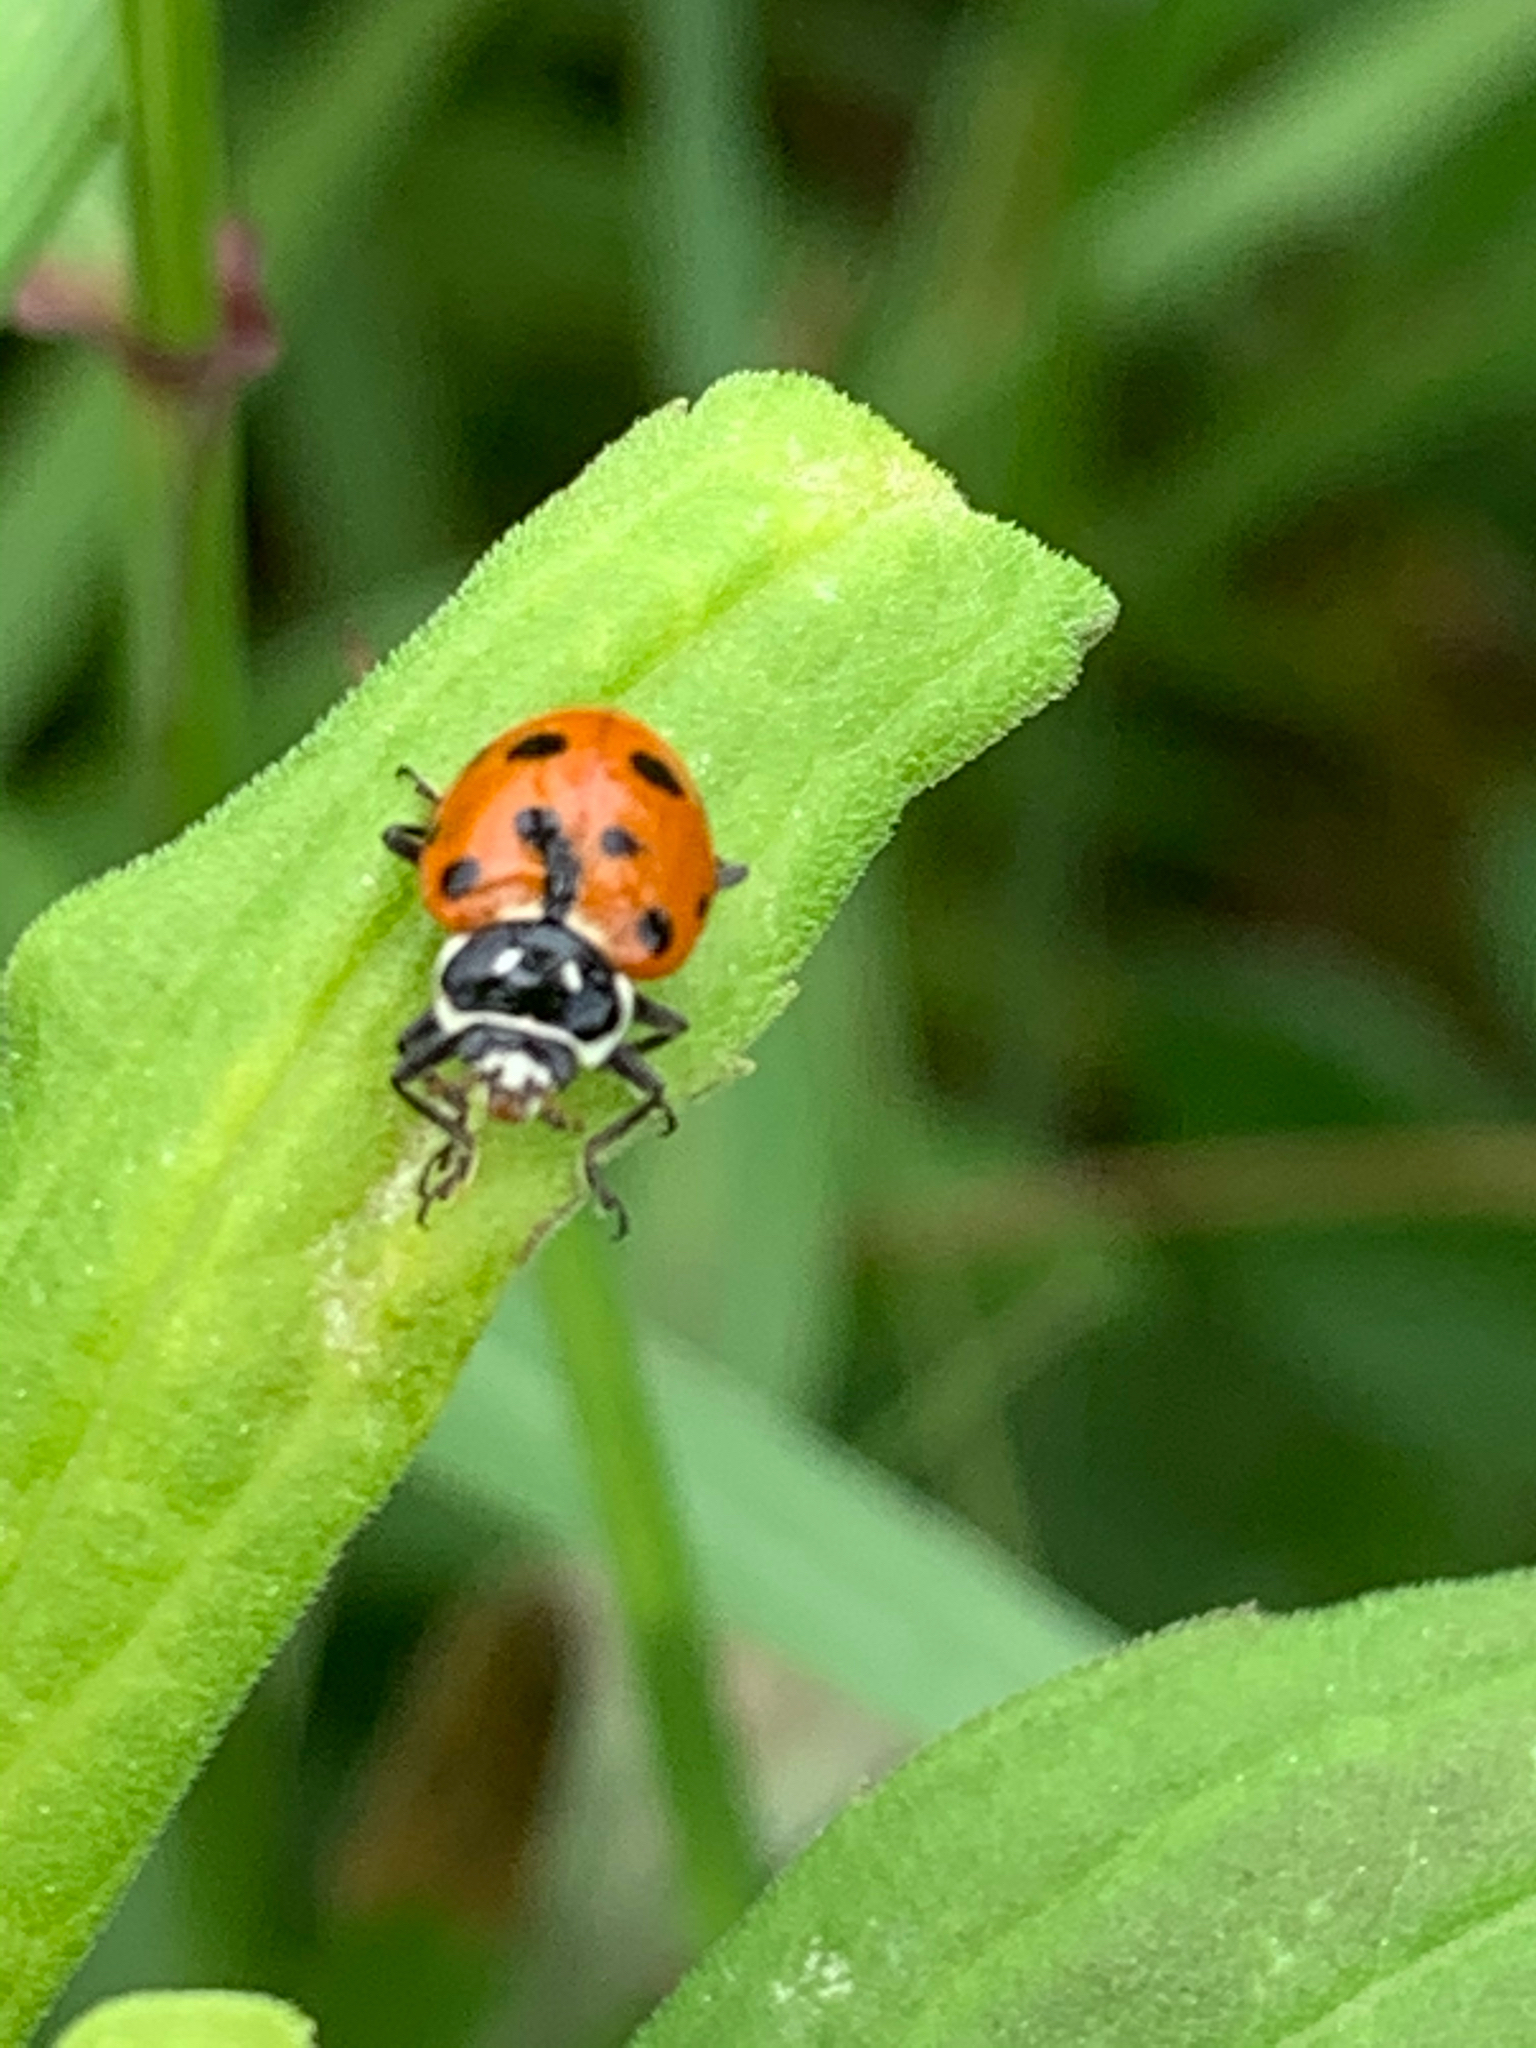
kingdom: Animalia
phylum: Arthropoda
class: Insecta
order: Coleoptera
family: Coccinellidae
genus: Hippodamia
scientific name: Hippodamia convergens
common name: Convergent lady beetle
